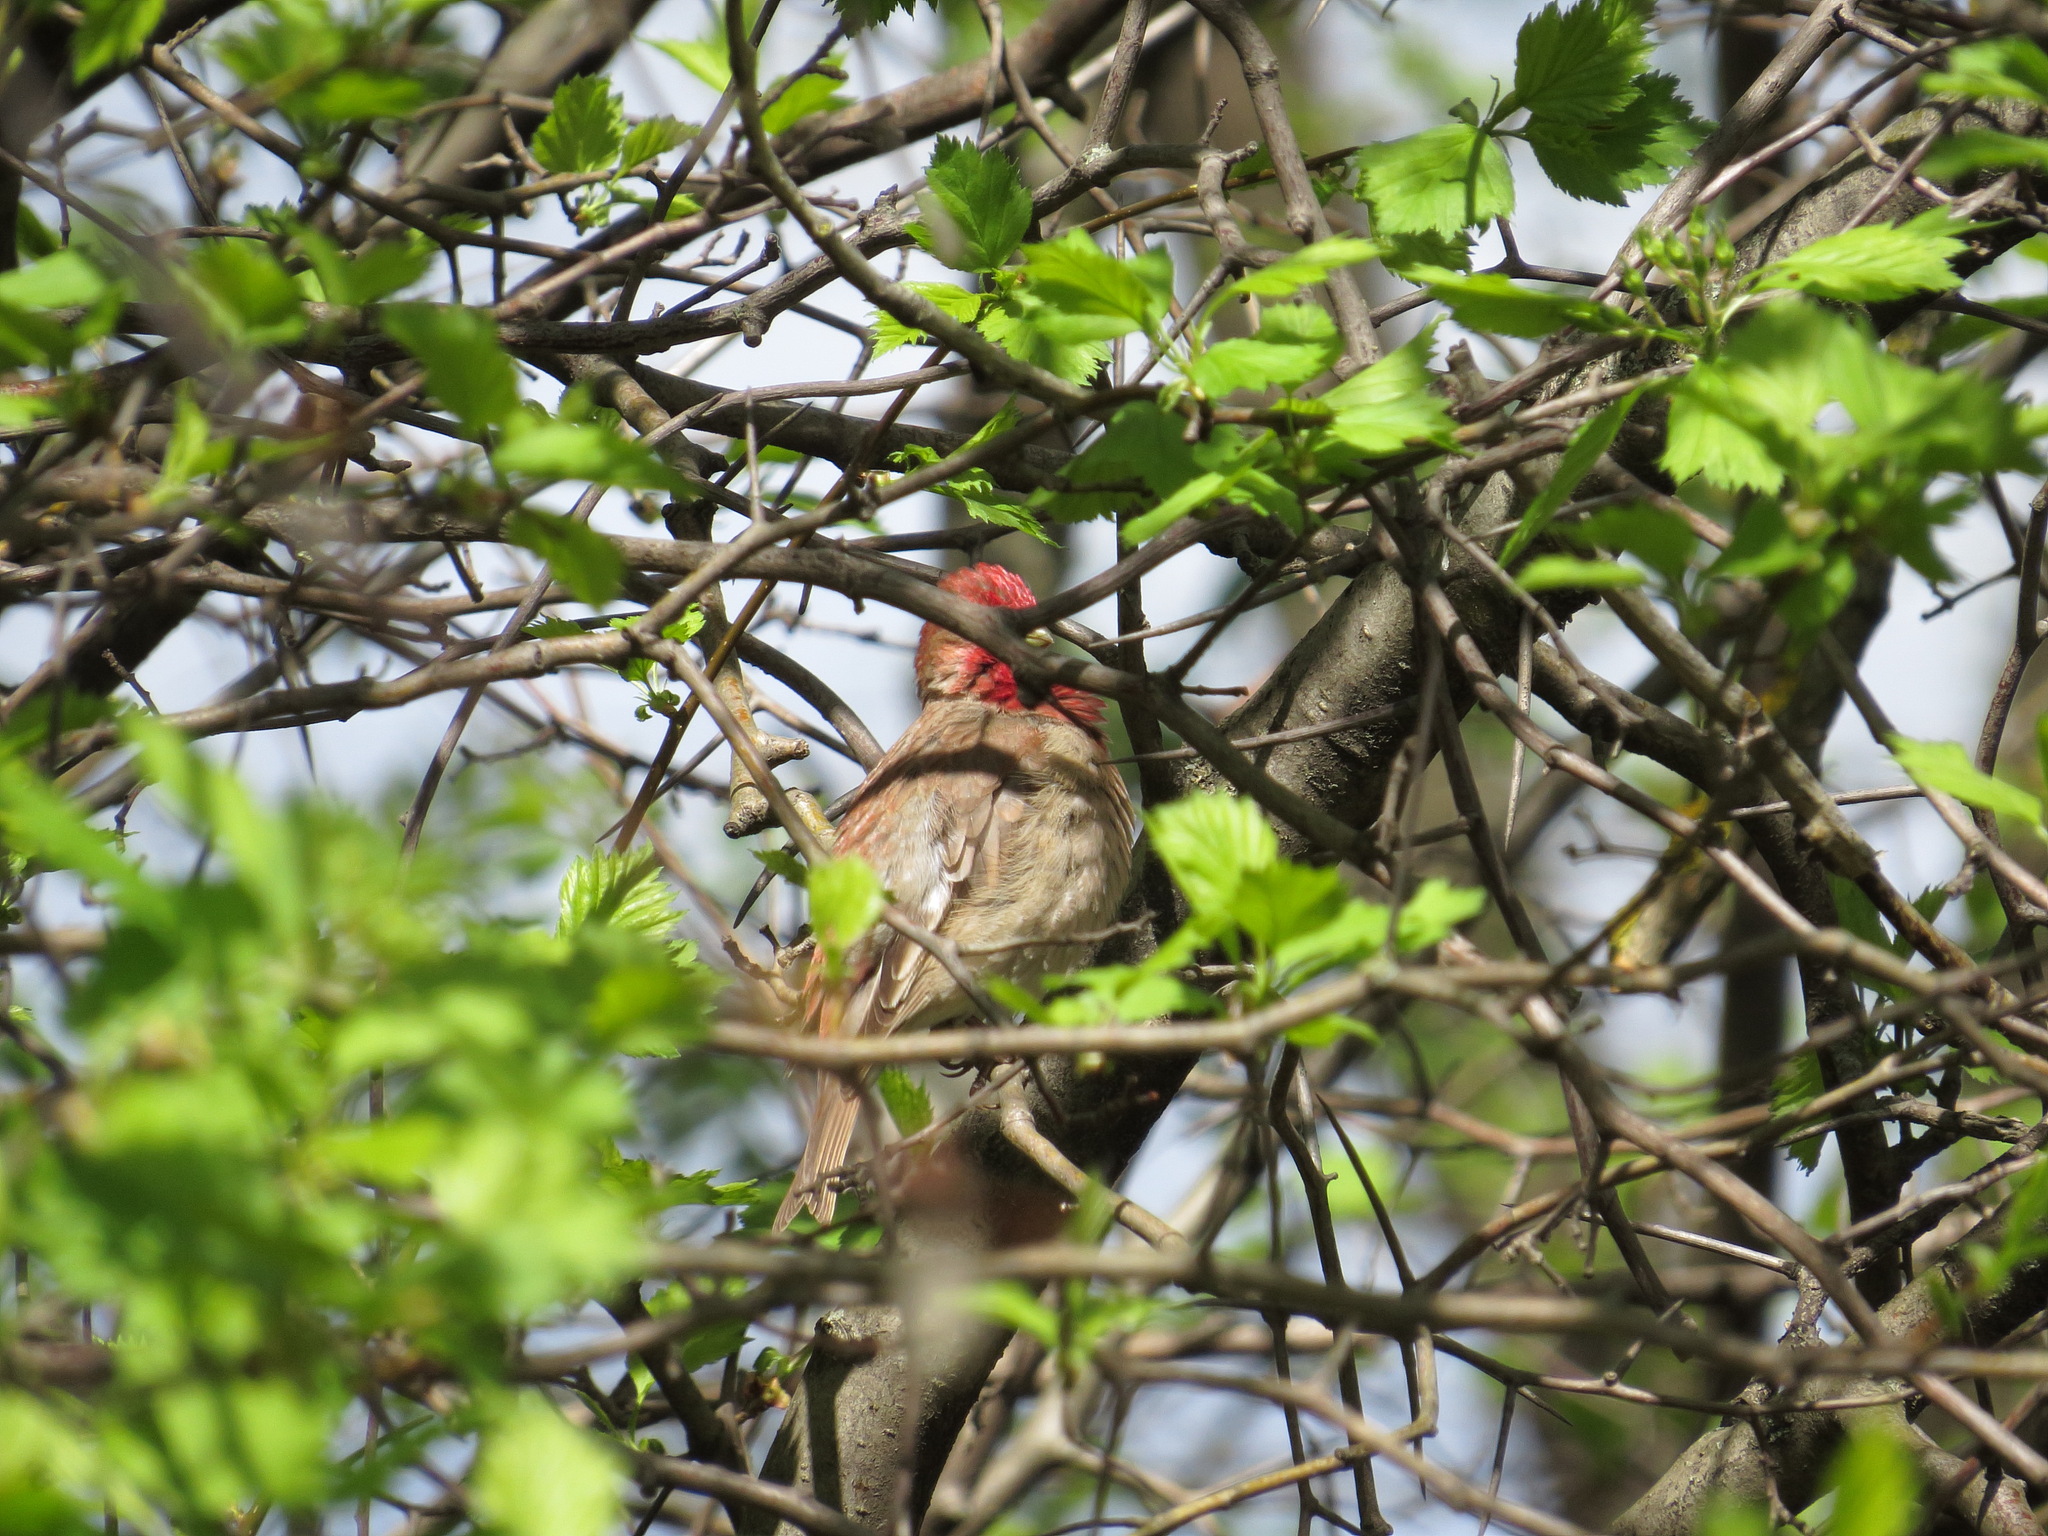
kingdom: Animalia
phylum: Chordata
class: Aves
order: Passeriformes
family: Fringillidae
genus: Carpodacus
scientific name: Carpodacus erythrinus
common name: Common rosefinch
